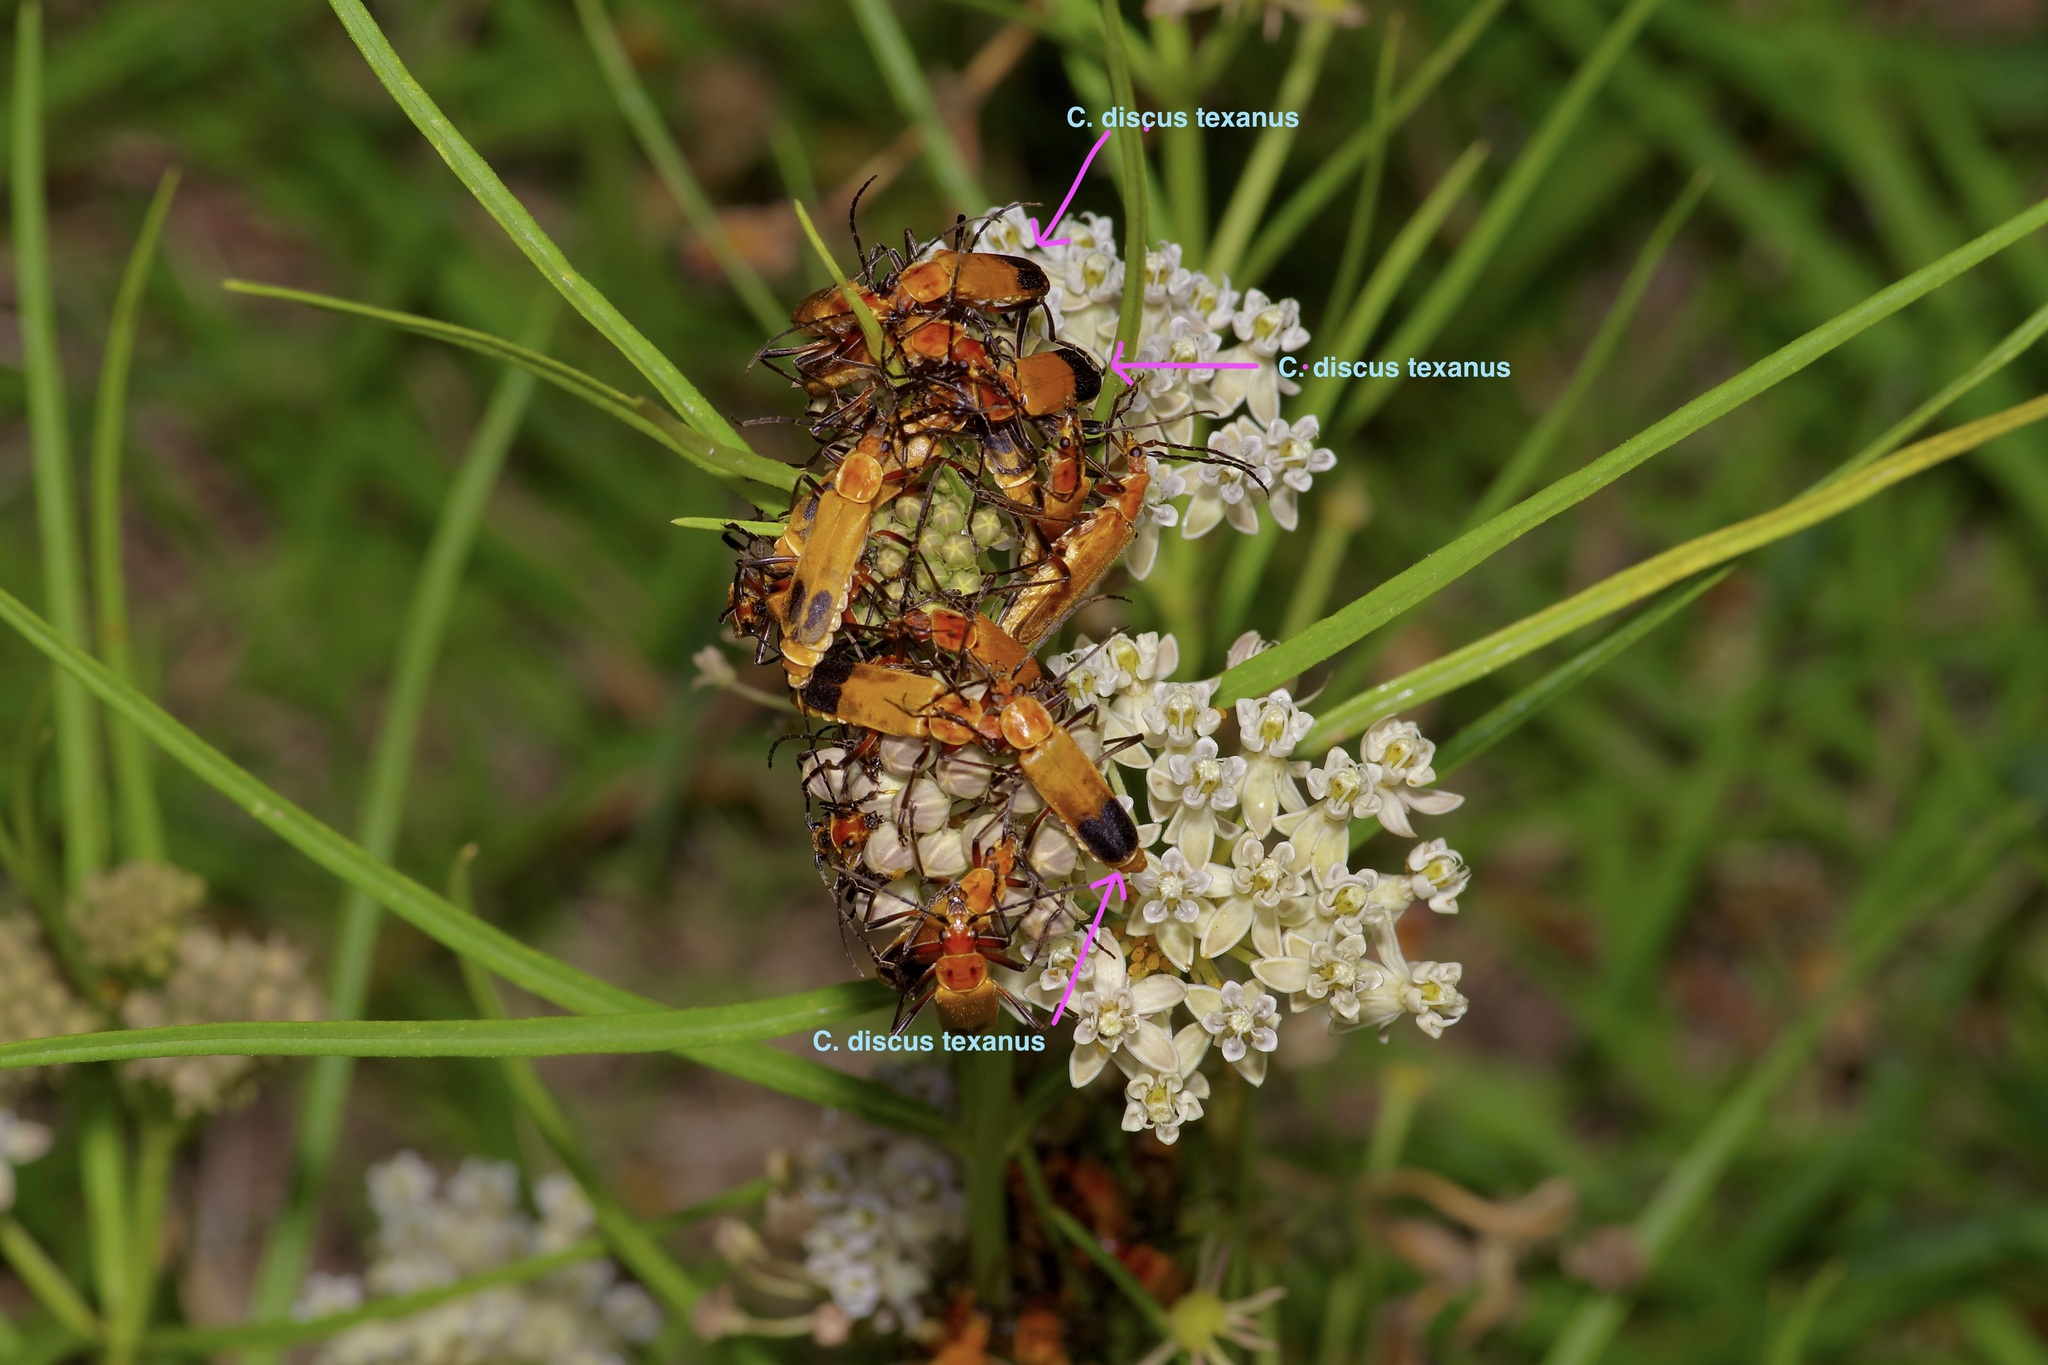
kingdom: Animalia
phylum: Arthropoda
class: Insecta
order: Coleoptera
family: Cantharidae
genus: Chauliognathus
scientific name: Chauliognathus discus
